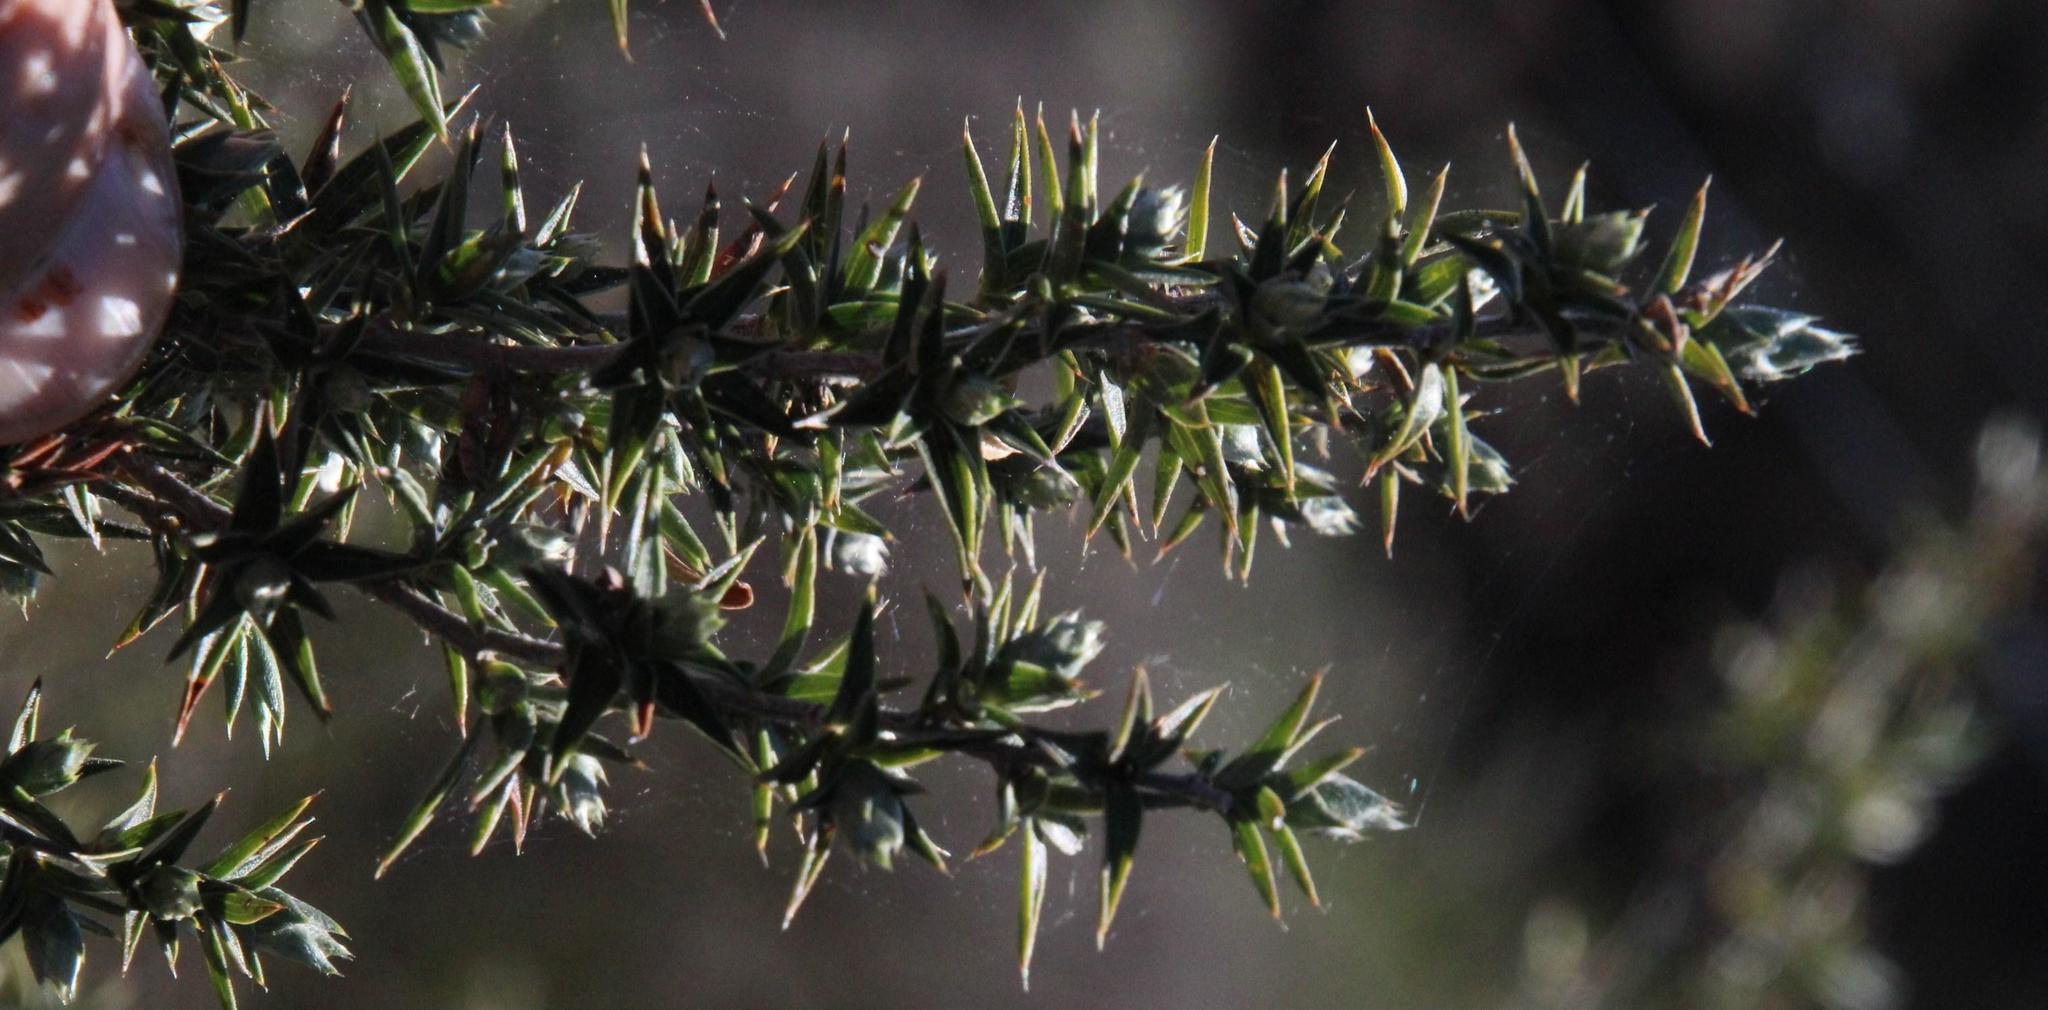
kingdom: Plantae
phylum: Tracheophyta
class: Magnoliopsida
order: Rosales
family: Rosaceae
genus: Cliffortia
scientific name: Cliffortia ruscifolia
